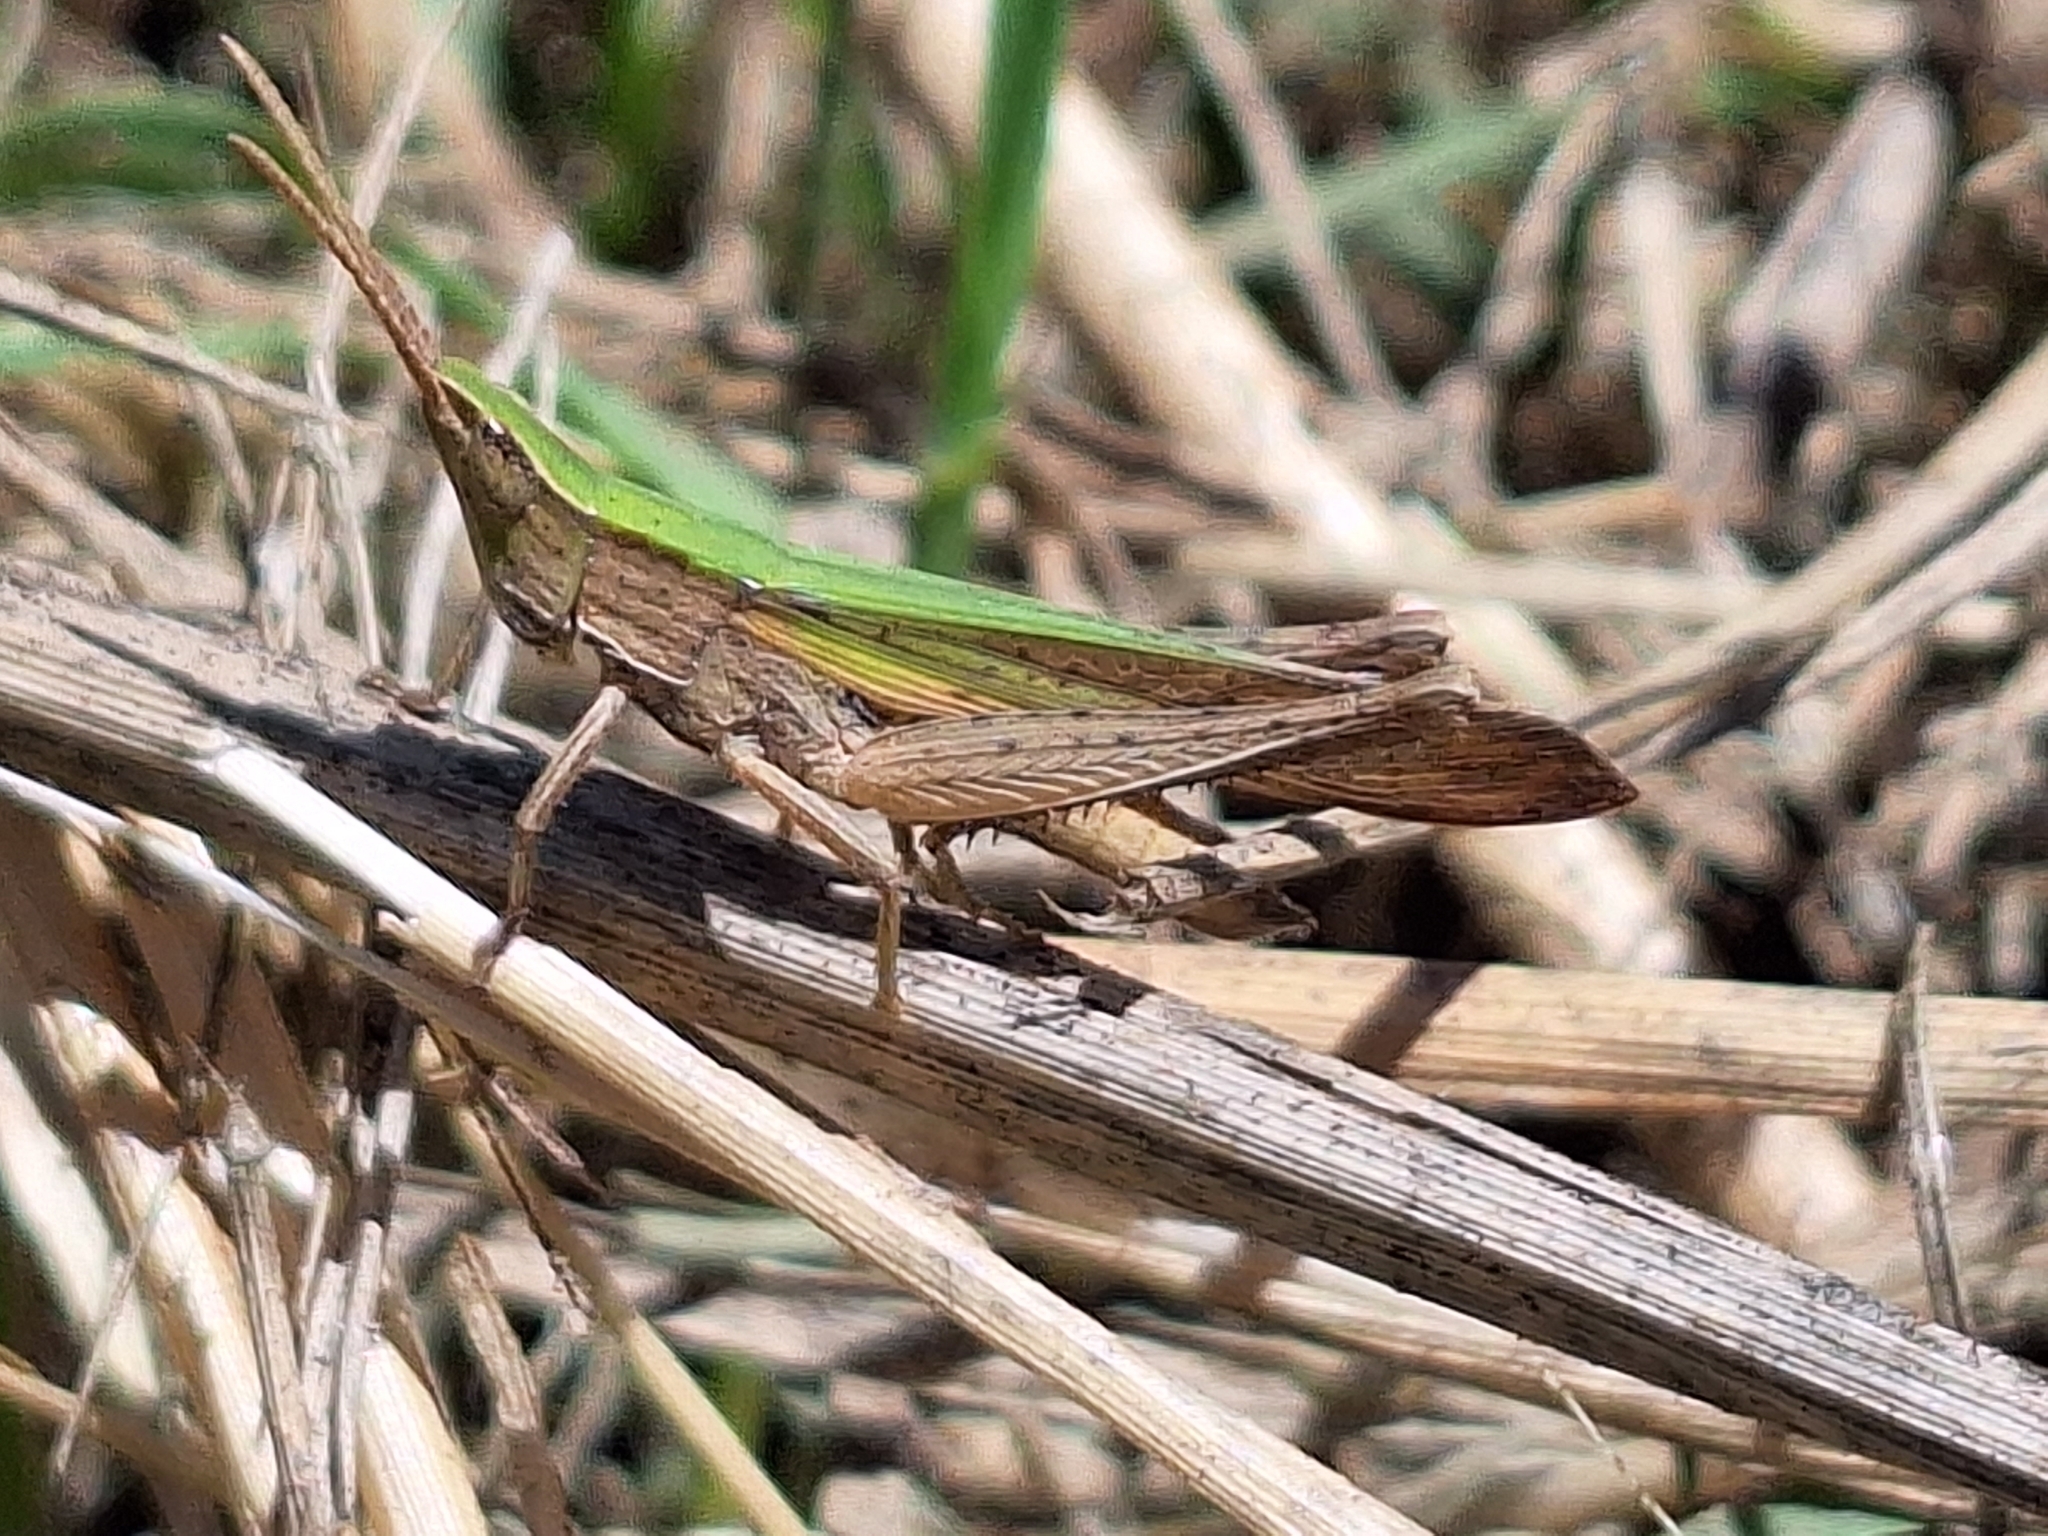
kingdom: Animalia
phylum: Arthropoda
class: Insecta
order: Orthoptera
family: Acrididae
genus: Allotruxalis
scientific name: Allotruxalis gracilis
